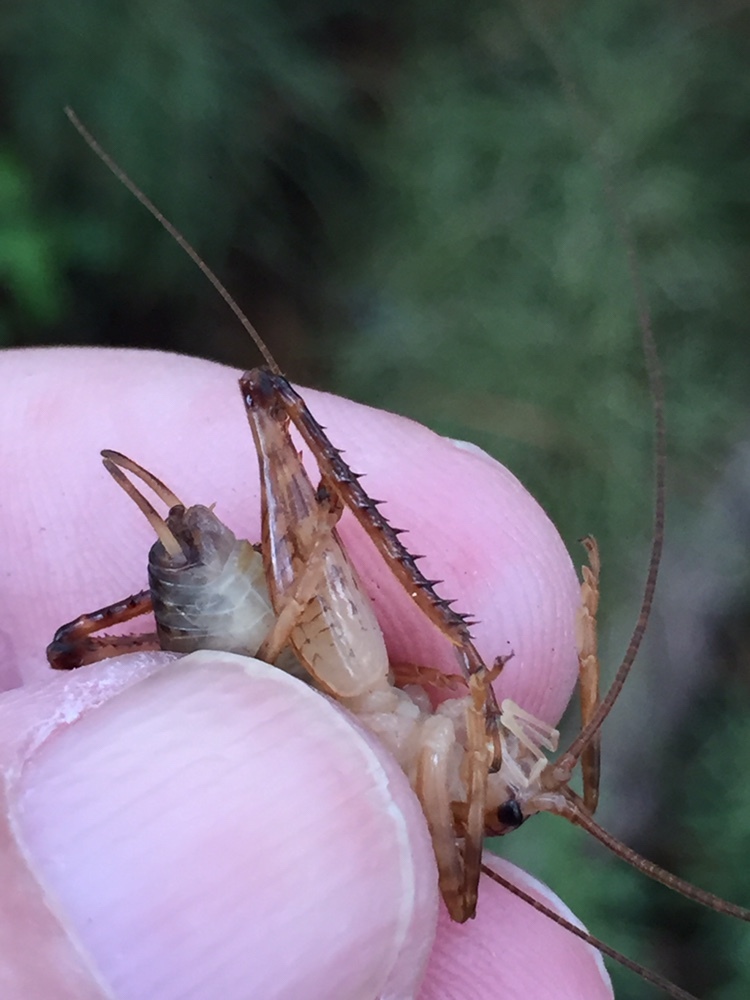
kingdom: Animalia
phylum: Arthropoda
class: Insecta
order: Orthoptera
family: Rhaphidophoridae
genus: Talitropsis
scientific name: Talitropsis sedilloti
